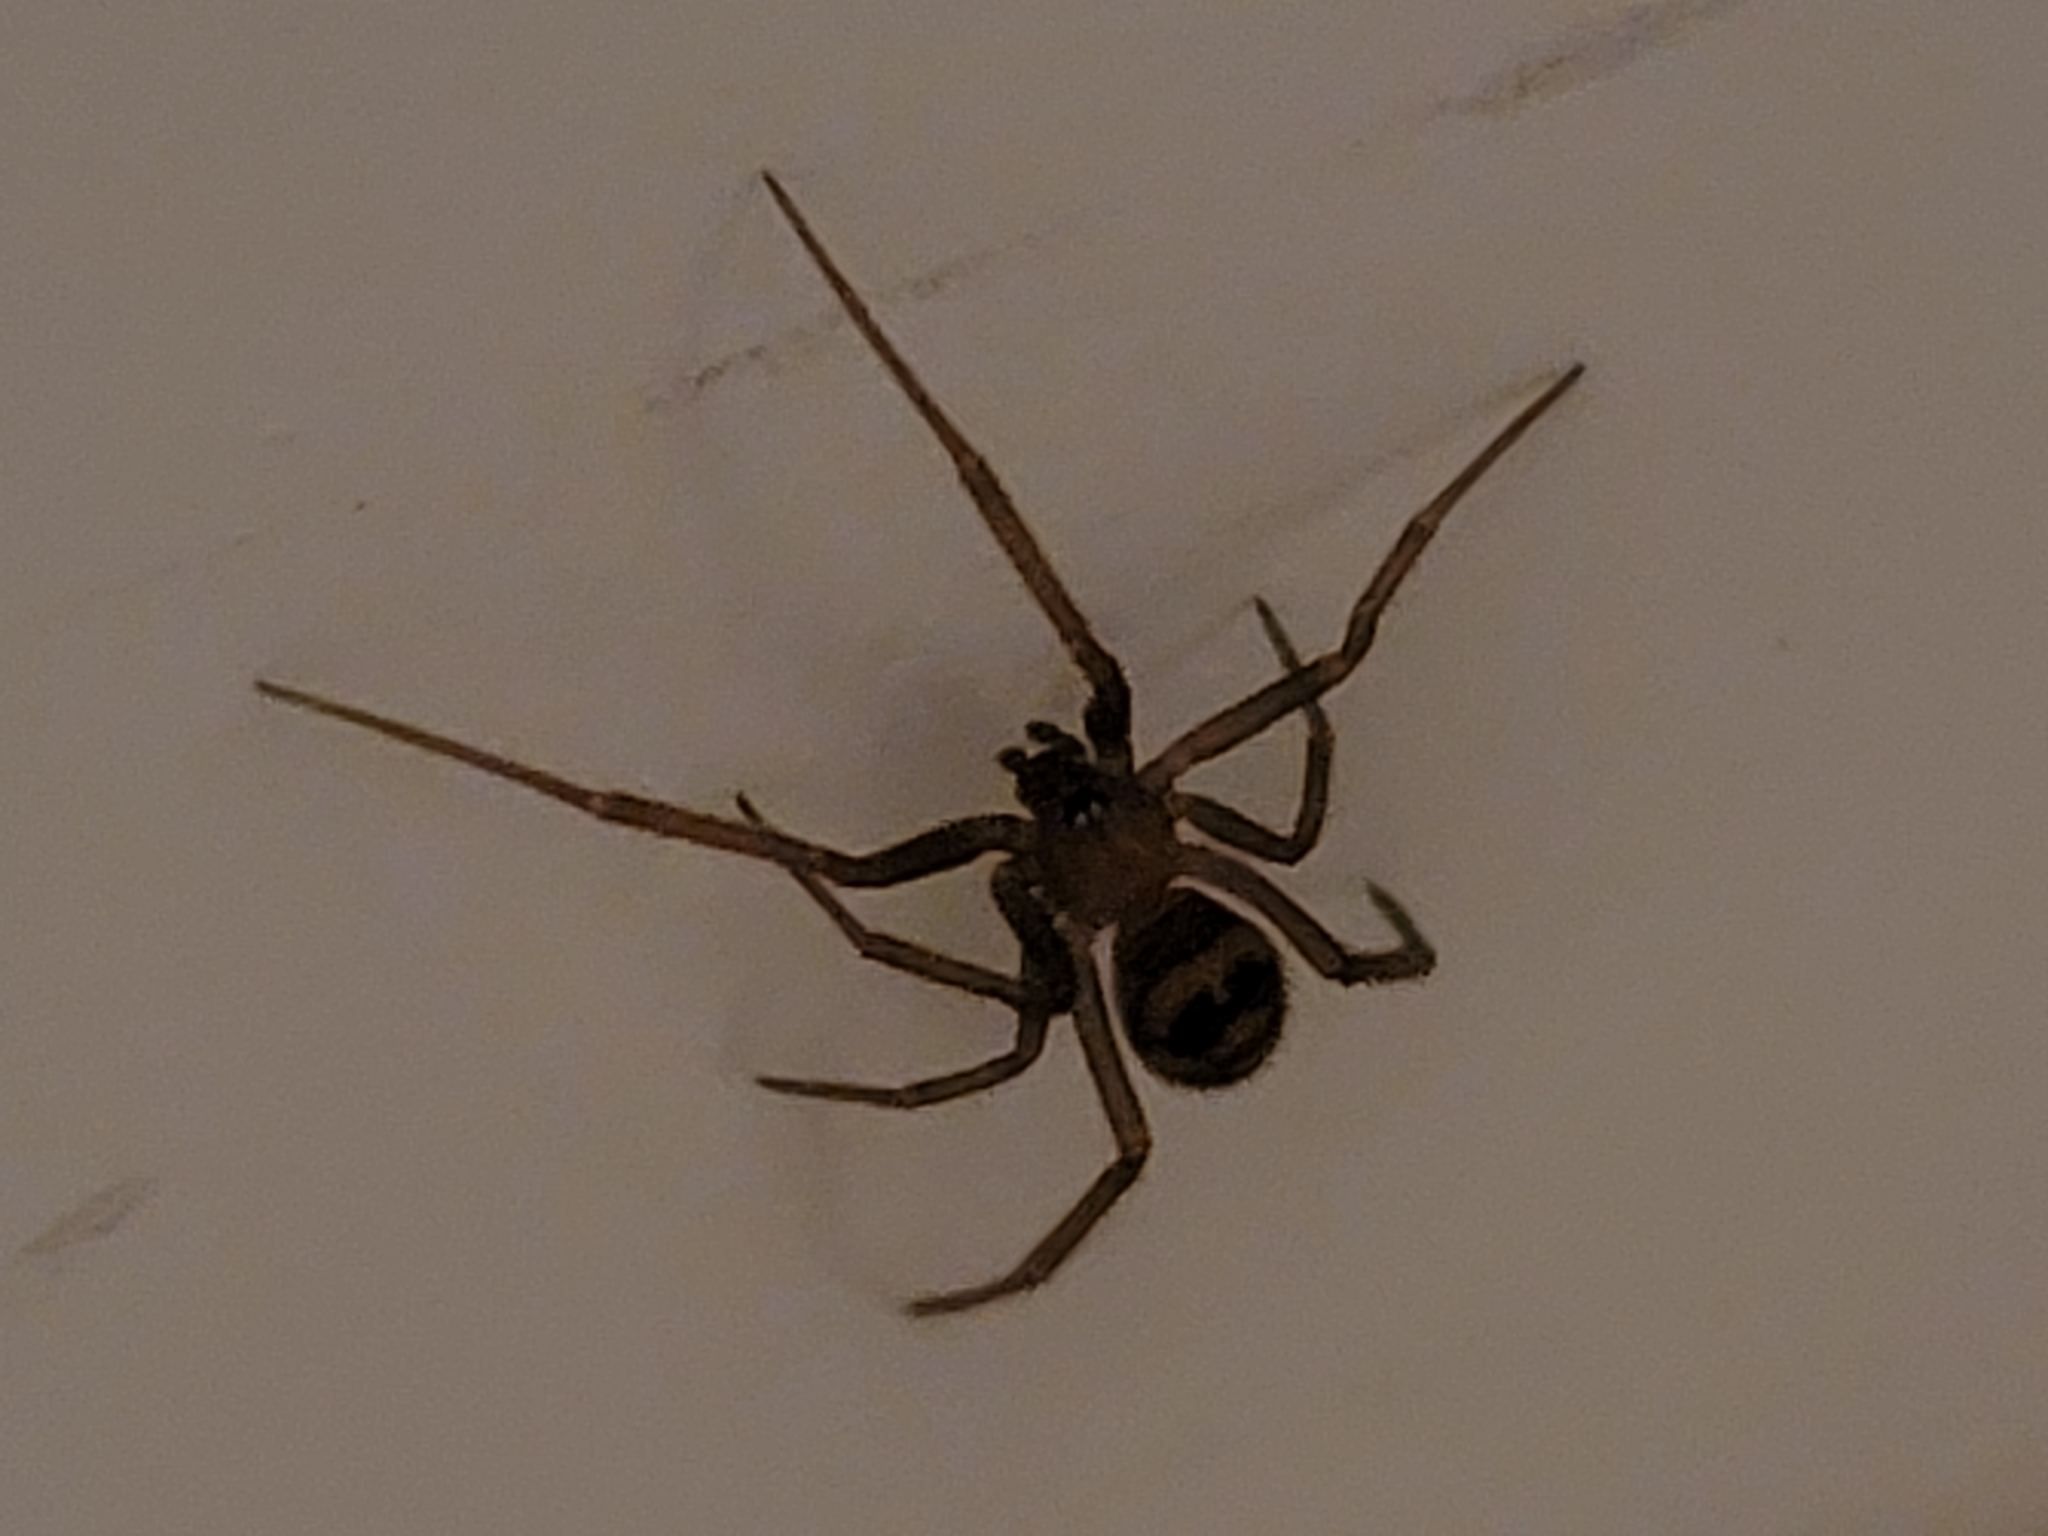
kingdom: Animalia
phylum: Arthropoda
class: Arachnida
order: Araneae
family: Theridiidae
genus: Steatoda
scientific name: Steatoda grossa
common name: False black widow
